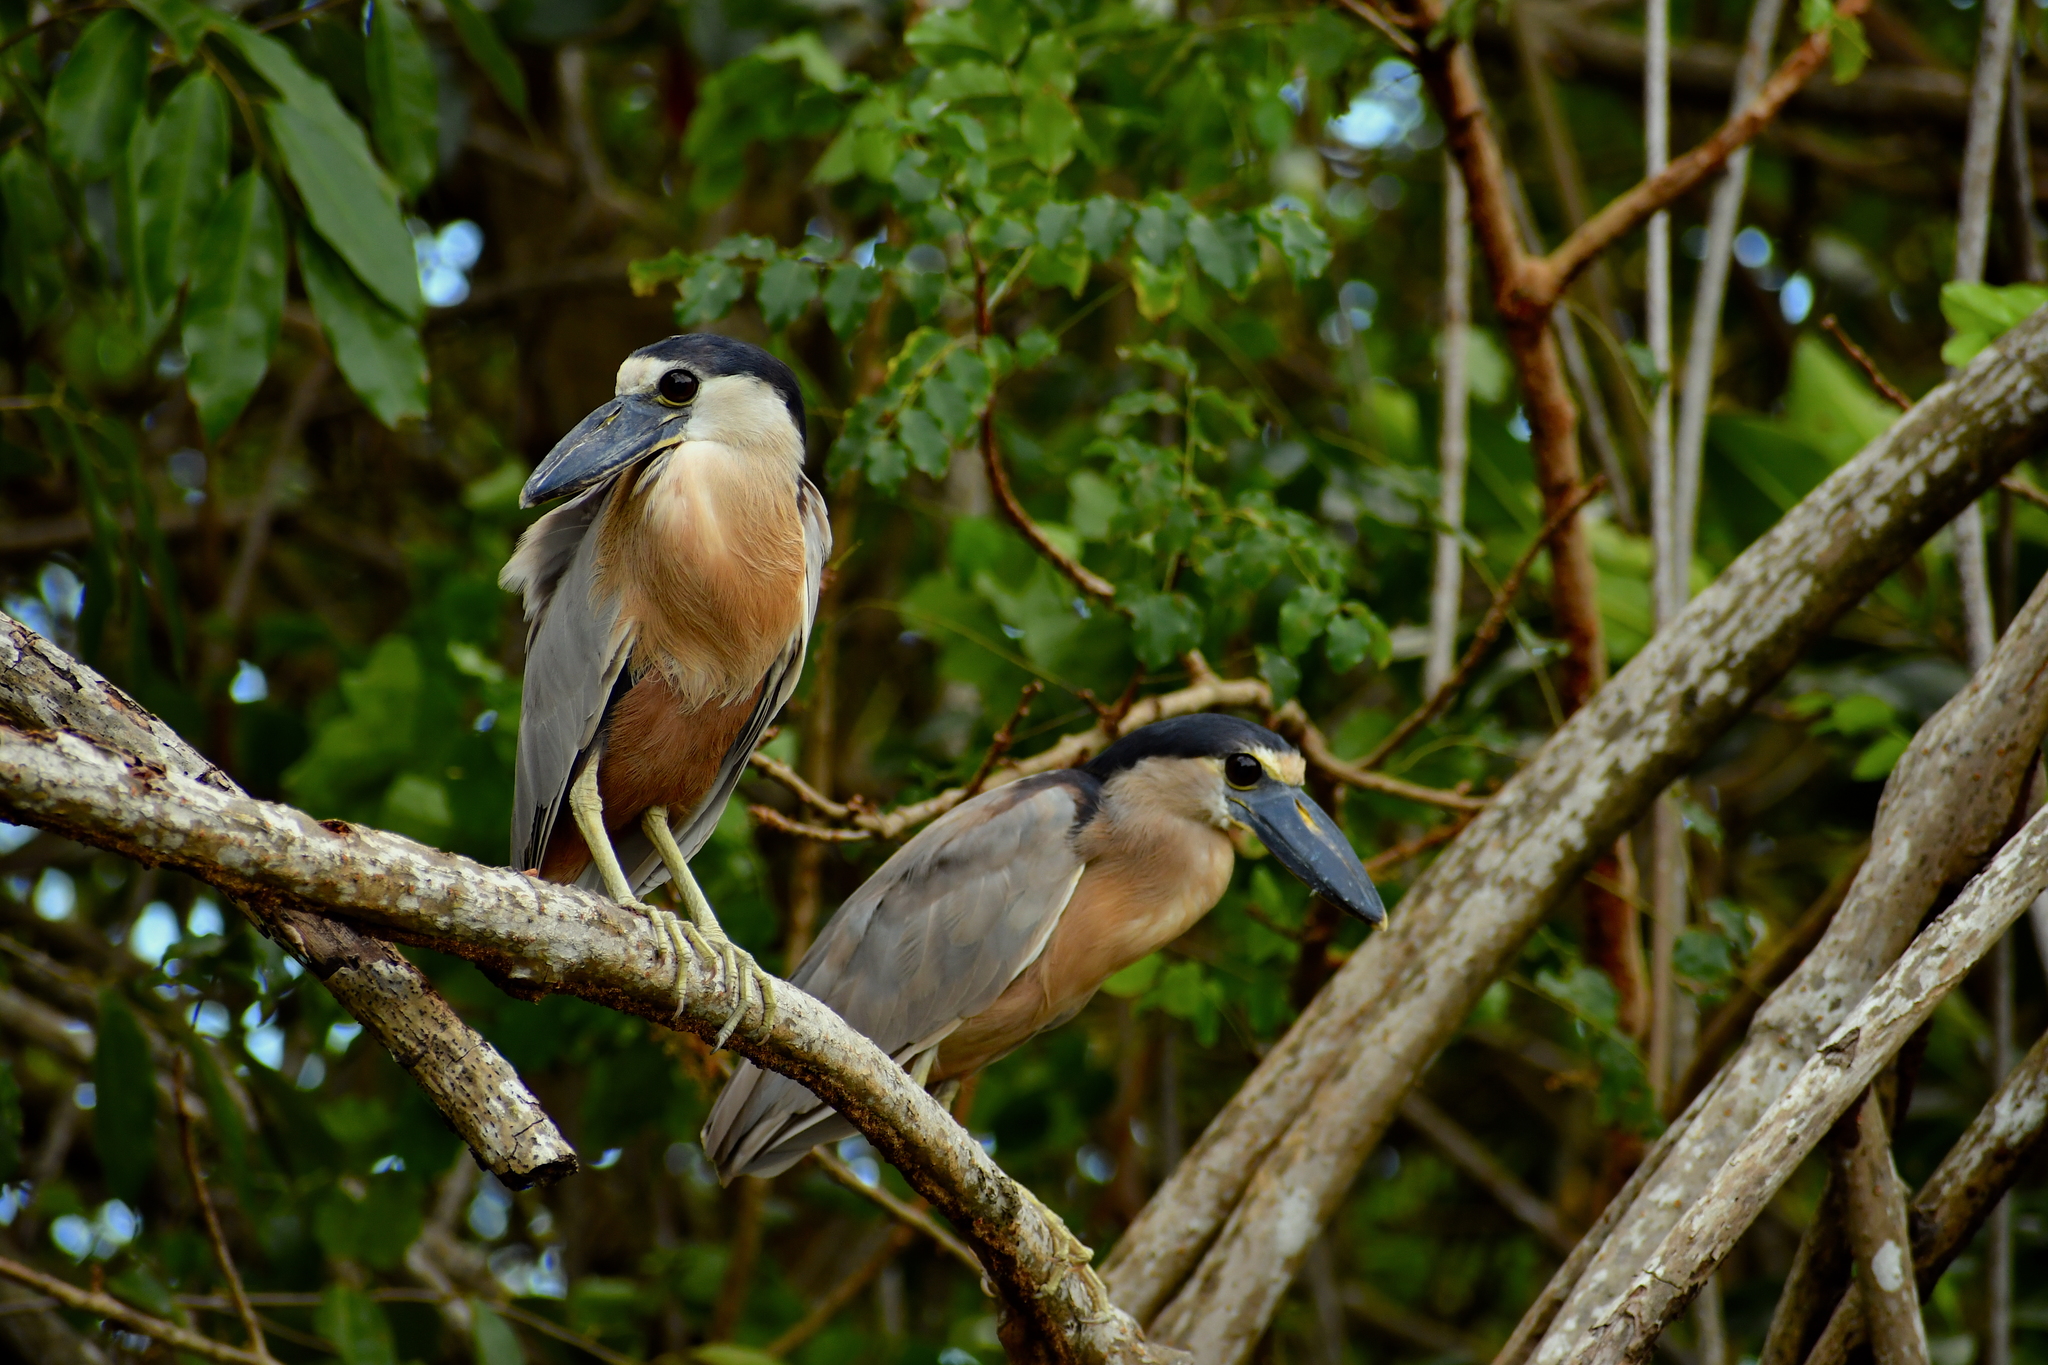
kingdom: Animalia
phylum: Chordata
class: Aves
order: Pelecaniformes
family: Ardeidae
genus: Cochlearius
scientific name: Cochlearius cochlearius
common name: Boat-billed heron
